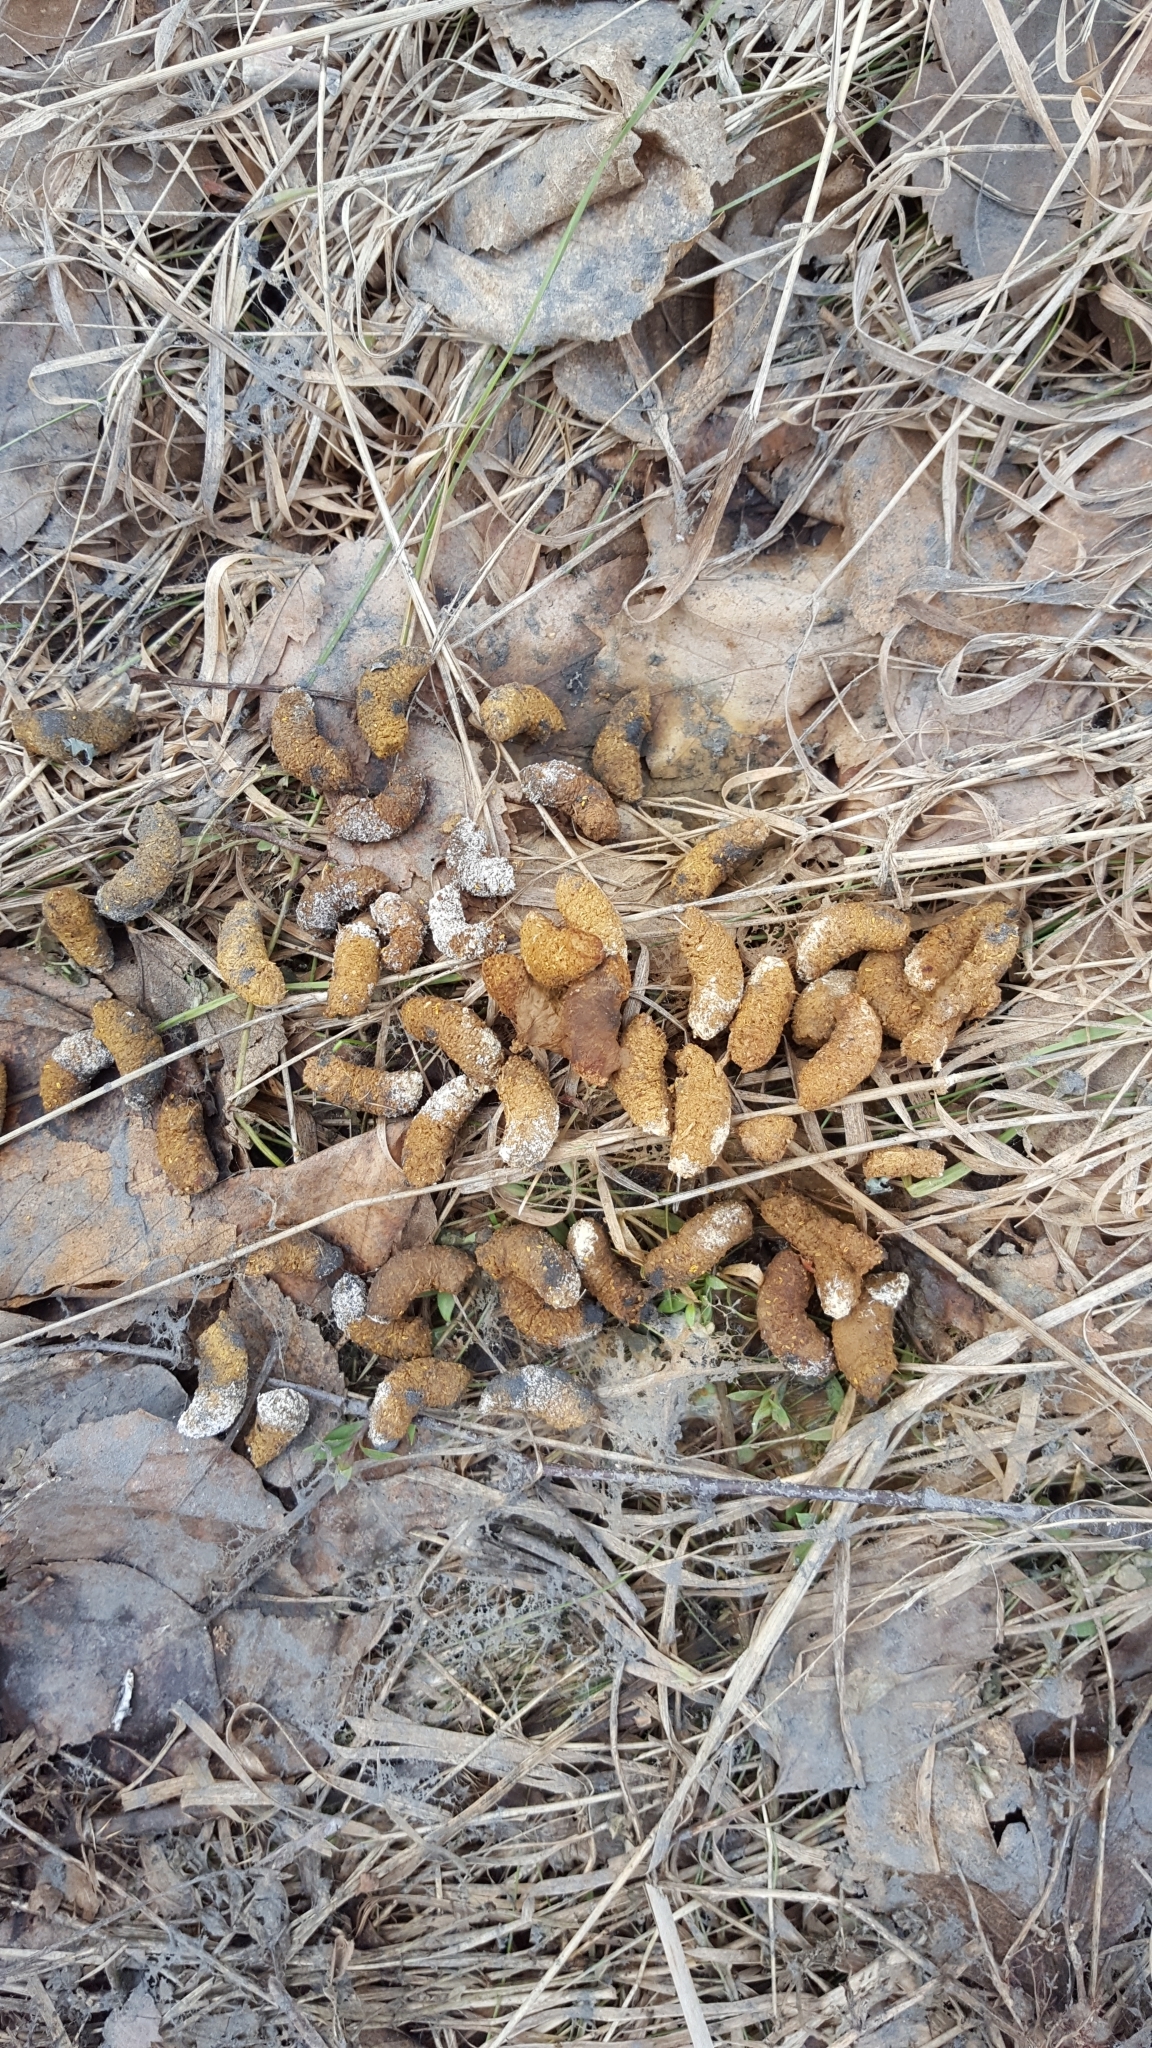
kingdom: Animalia
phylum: Chordata
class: Aves
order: Galliformes
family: Phasianidae
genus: Bonasa
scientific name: Bonasa umbellus
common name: Ruffed grouse
